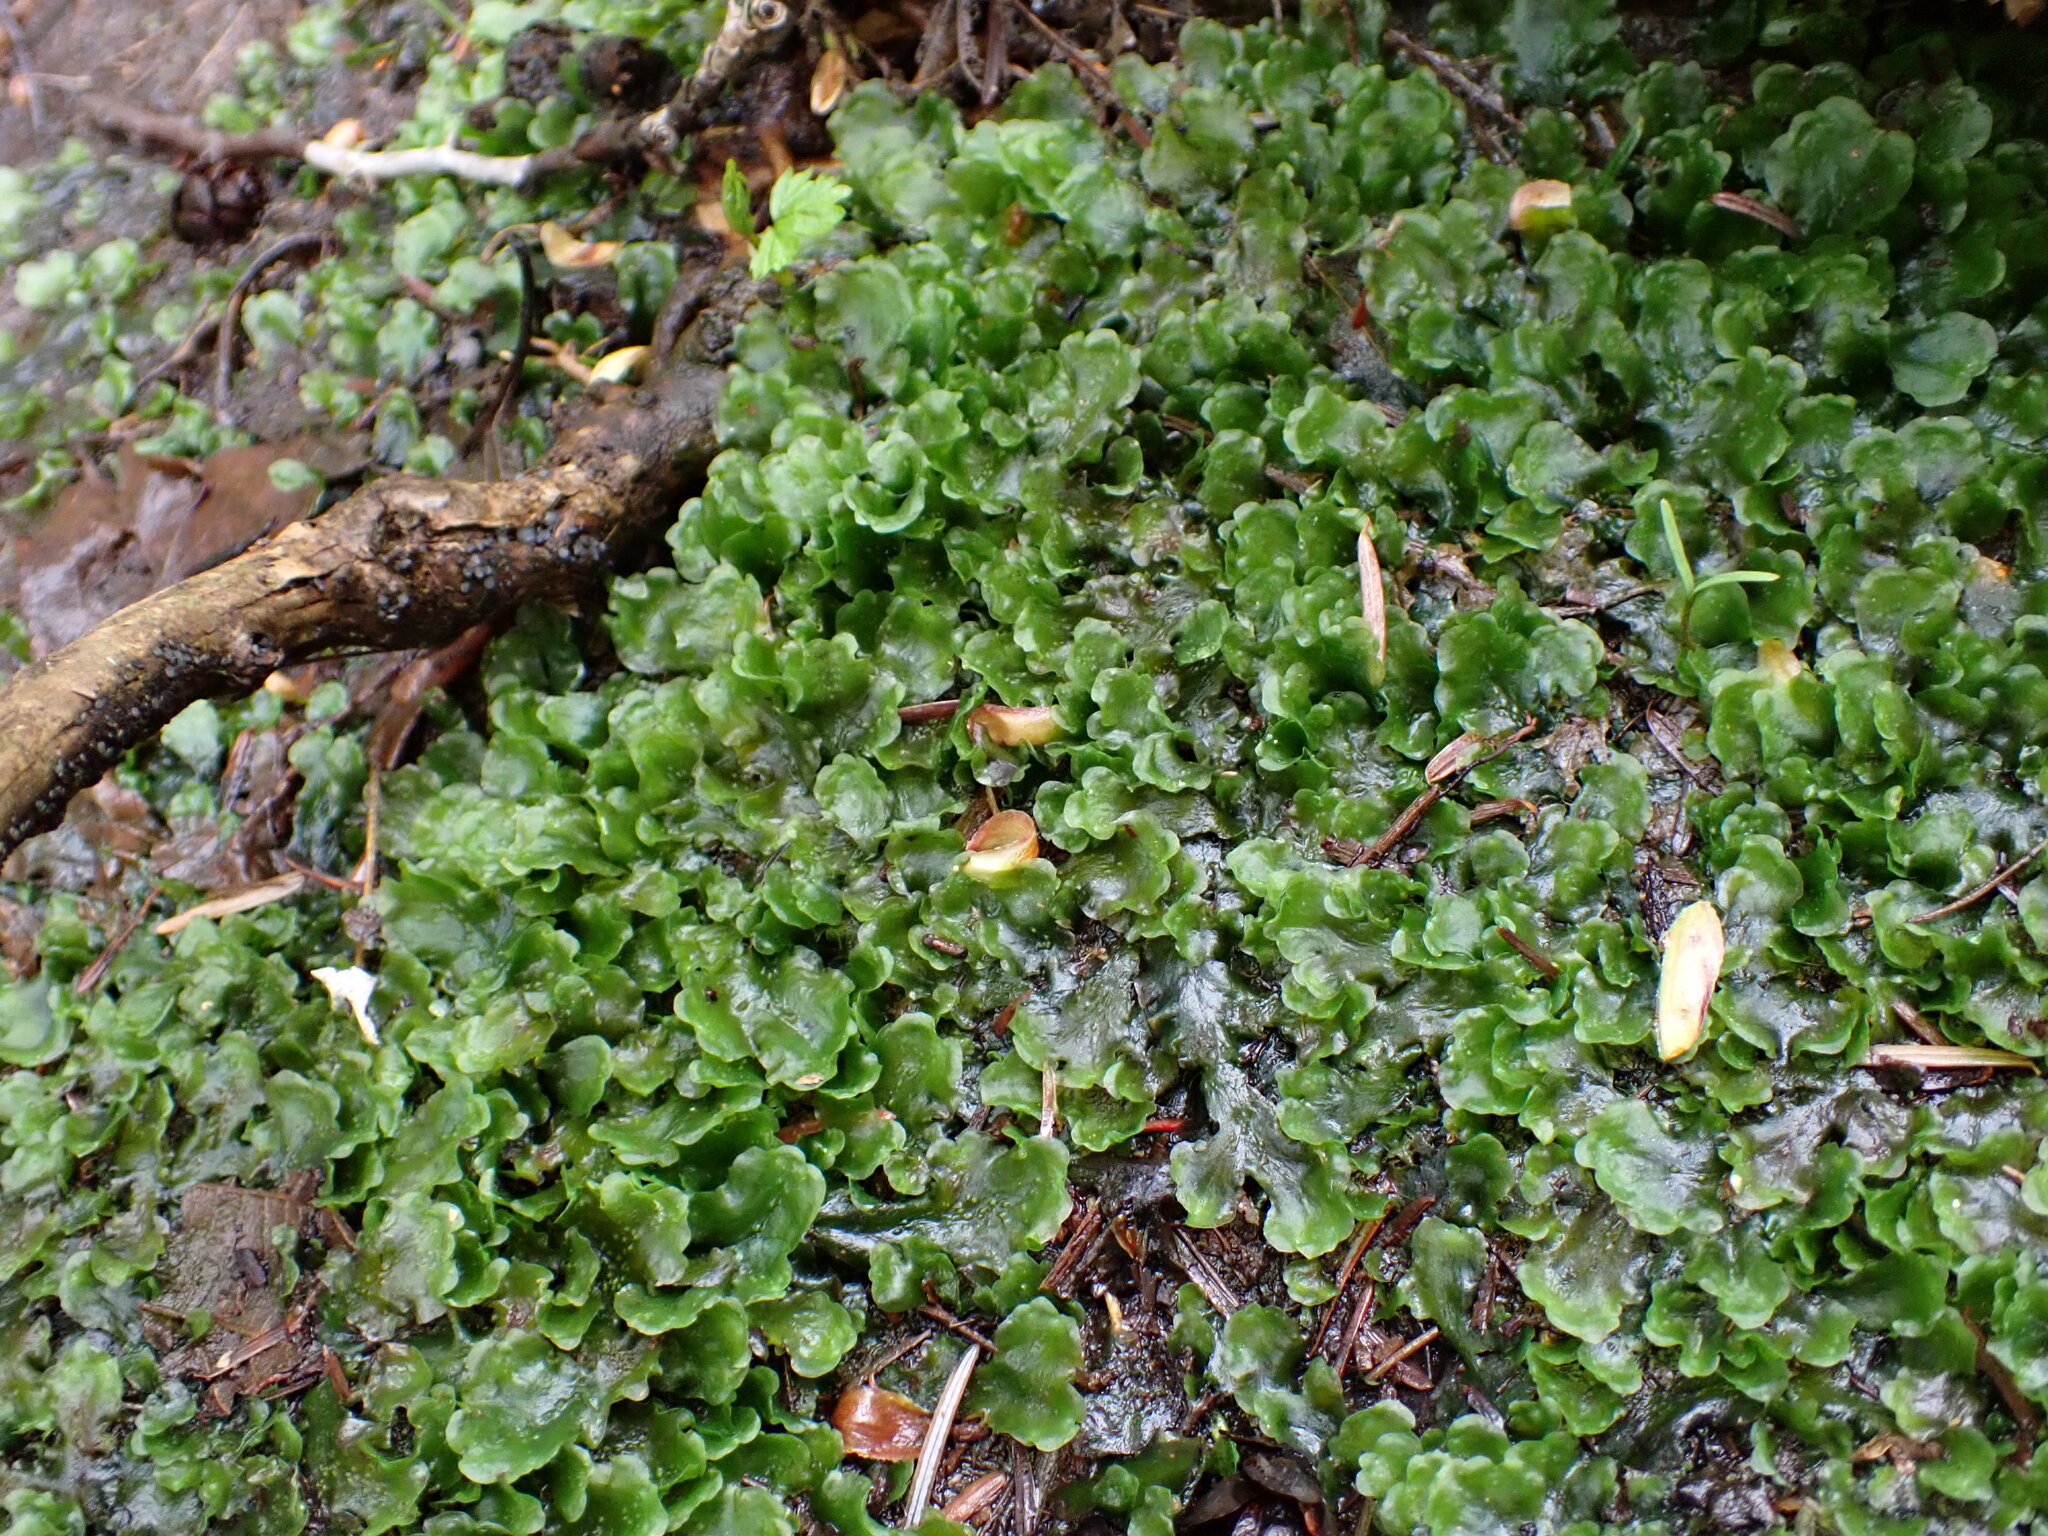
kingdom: Plantae
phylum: Marchantiophyta
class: Jungermanniopsida
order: Pelliales
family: Pelliaceae
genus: Pellia
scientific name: Pellia neesiana
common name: Nees  pellia
